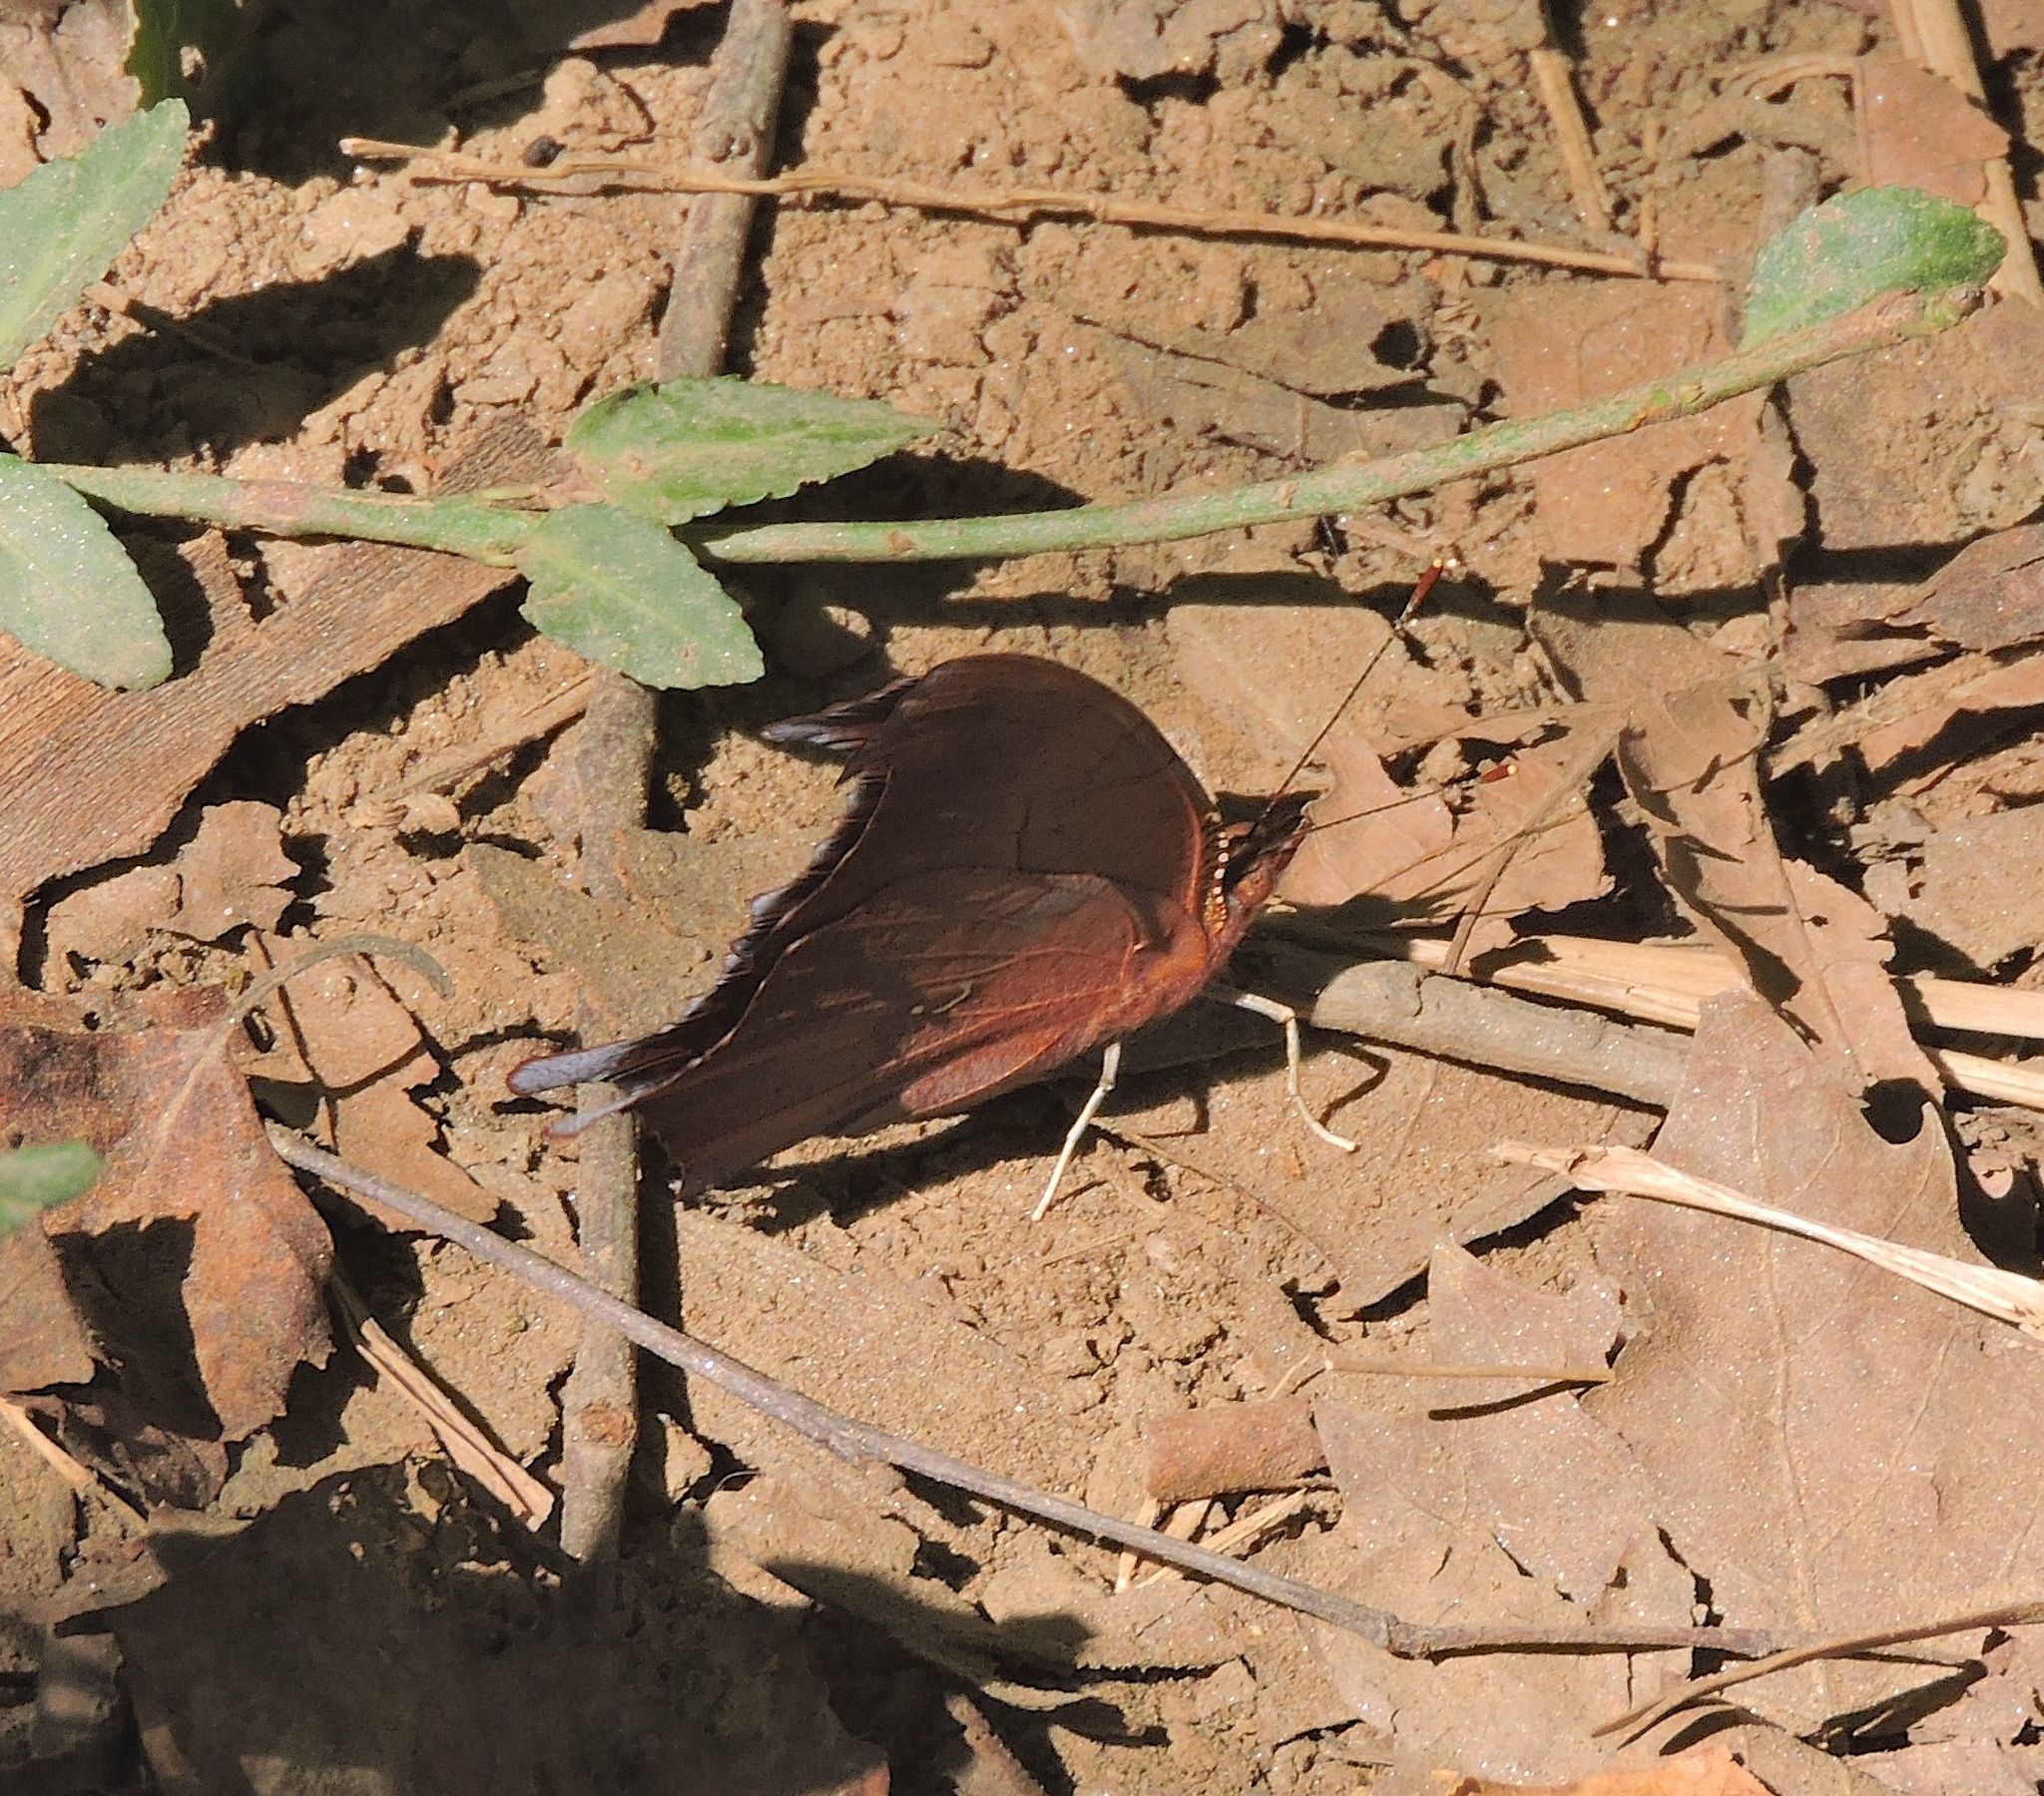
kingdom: Animalia
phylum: Arthropoda
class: Insecta
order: Lepidoptera
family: Nymphalidae
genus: Polygonia
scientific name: Polygonia interrogationis
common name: Question mark
